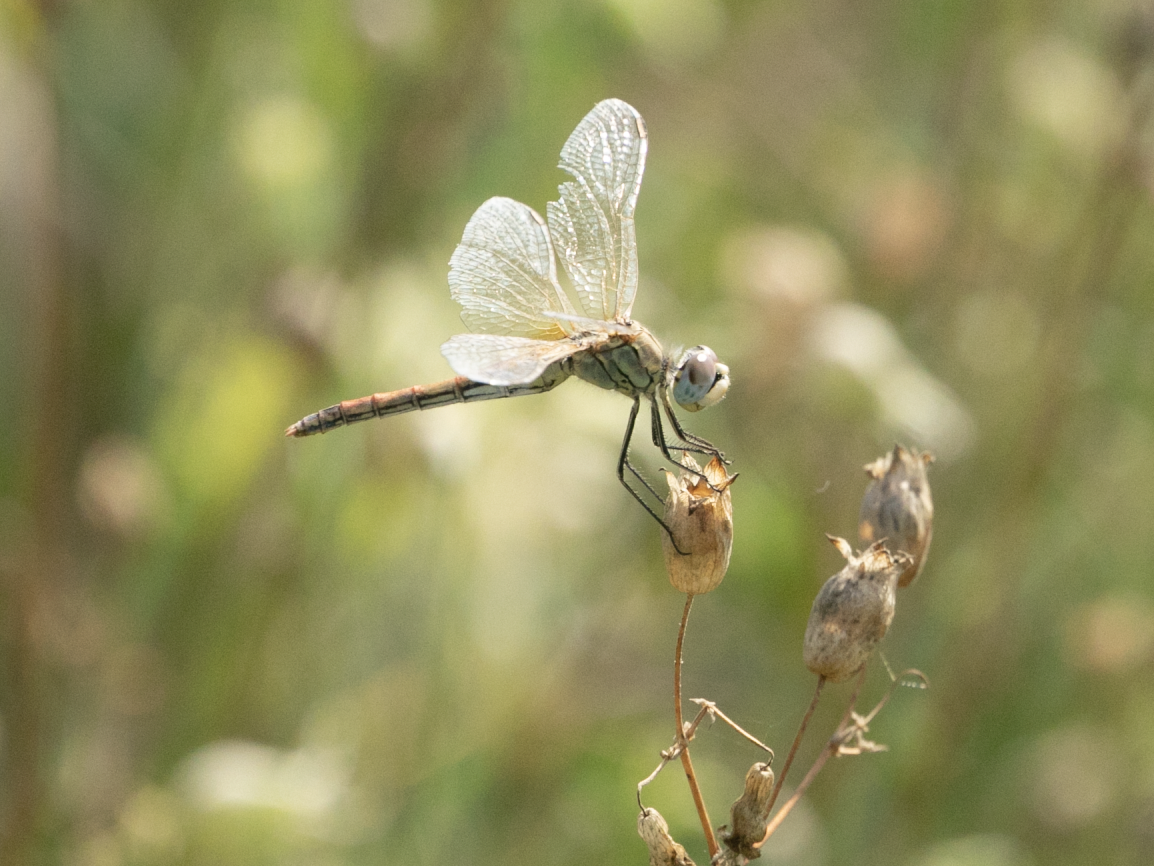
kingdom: Animalia
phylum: Arthropoda
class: Insecta
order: Odonata
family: Libellulidae
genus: Sympetrum
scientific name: Sympetrum fonscolombii
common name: Red-veined darter
